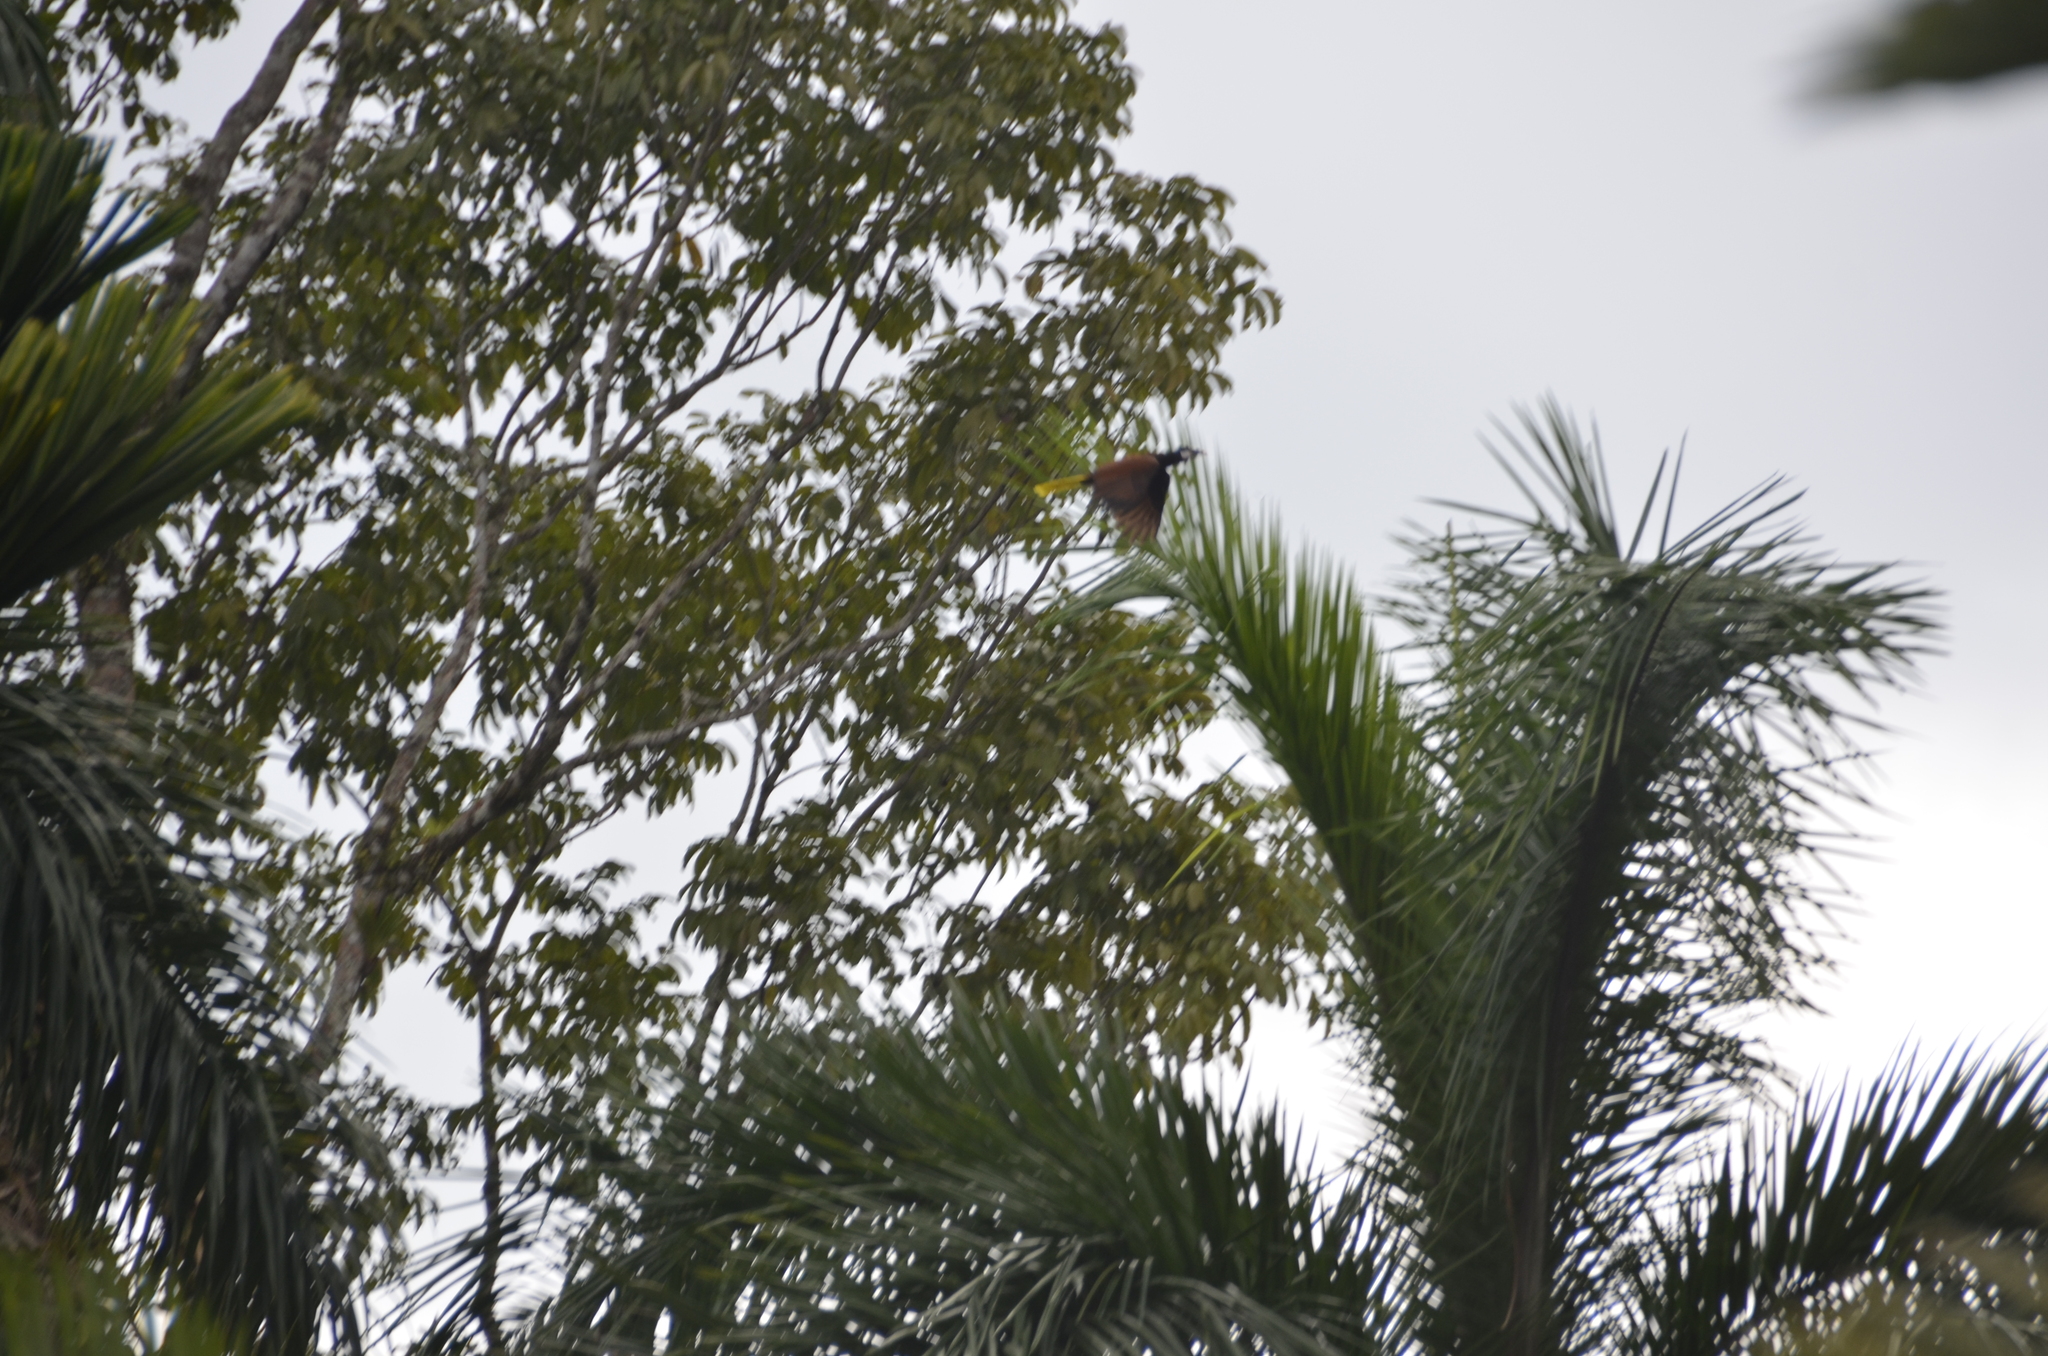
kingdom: Animalia
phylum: Chordata
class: Aves
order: Passeriformes
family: Icteridae
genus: Psarocolius
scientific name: Psarocolius montezuma
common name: Montezuma oropendola
